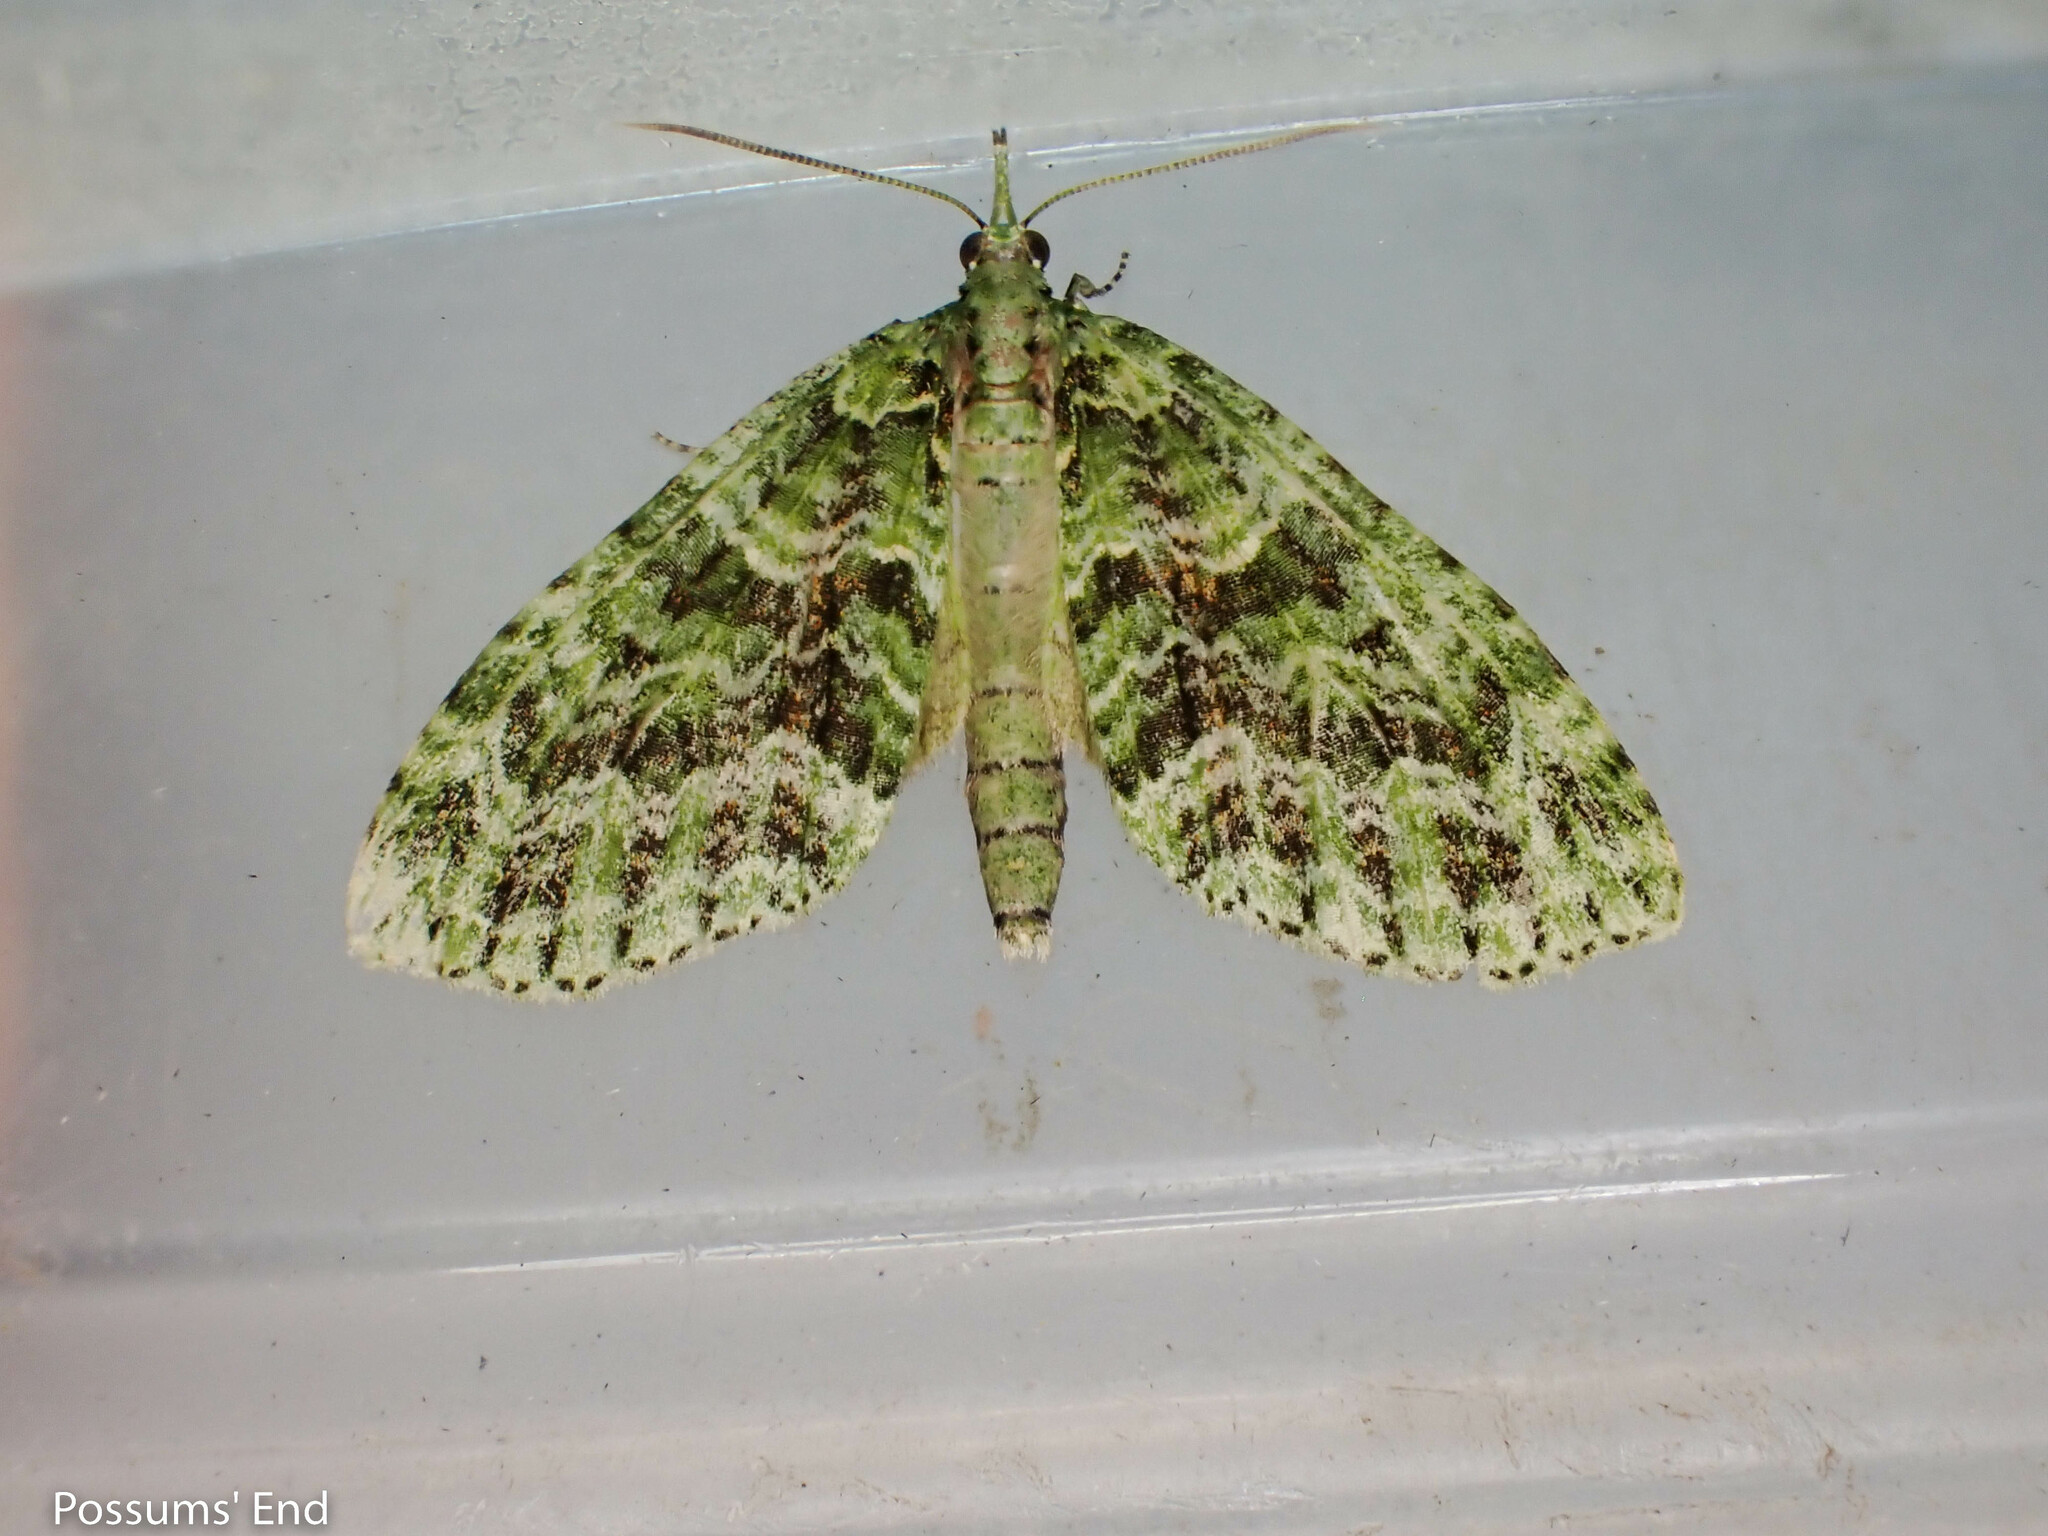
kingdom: Animalia
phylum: Arthropoda
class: Insecta
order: Lepidoptera
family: Geometridae
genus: Tatosoma
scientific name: Tatosoma tipulata
